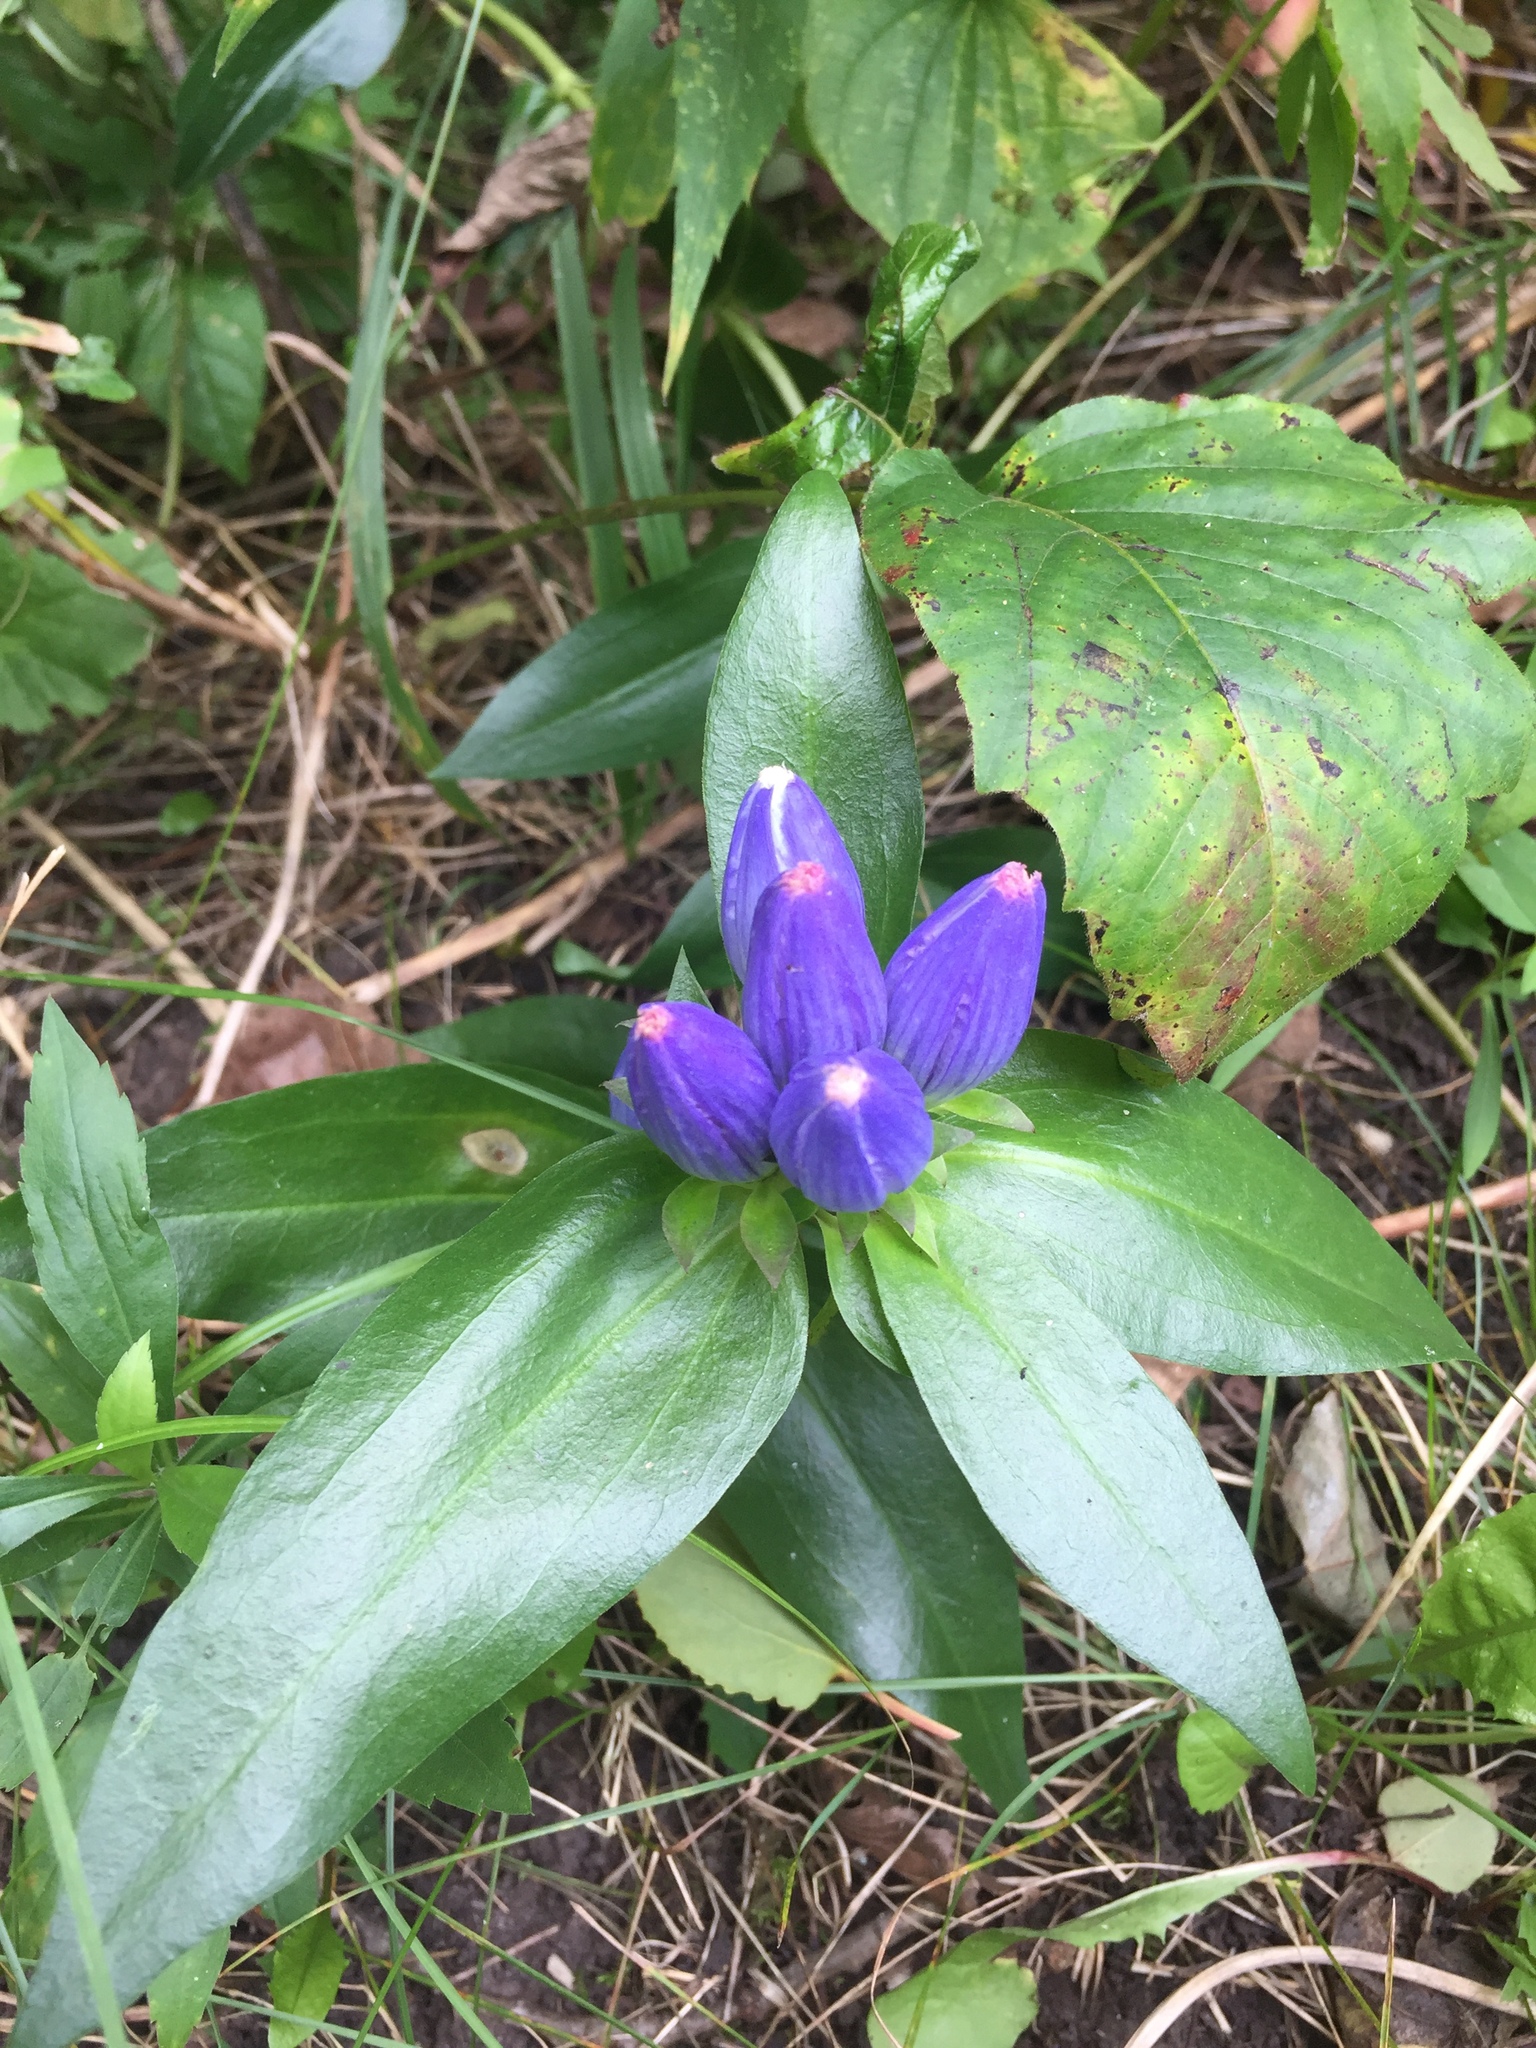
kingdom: Plantae
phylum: Tracheophyta
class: Magnoliopsida
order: Gentianales
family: Gentianaceae
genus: Gentiana
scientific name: Gentiana andrewsii
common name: Bottle gentian
